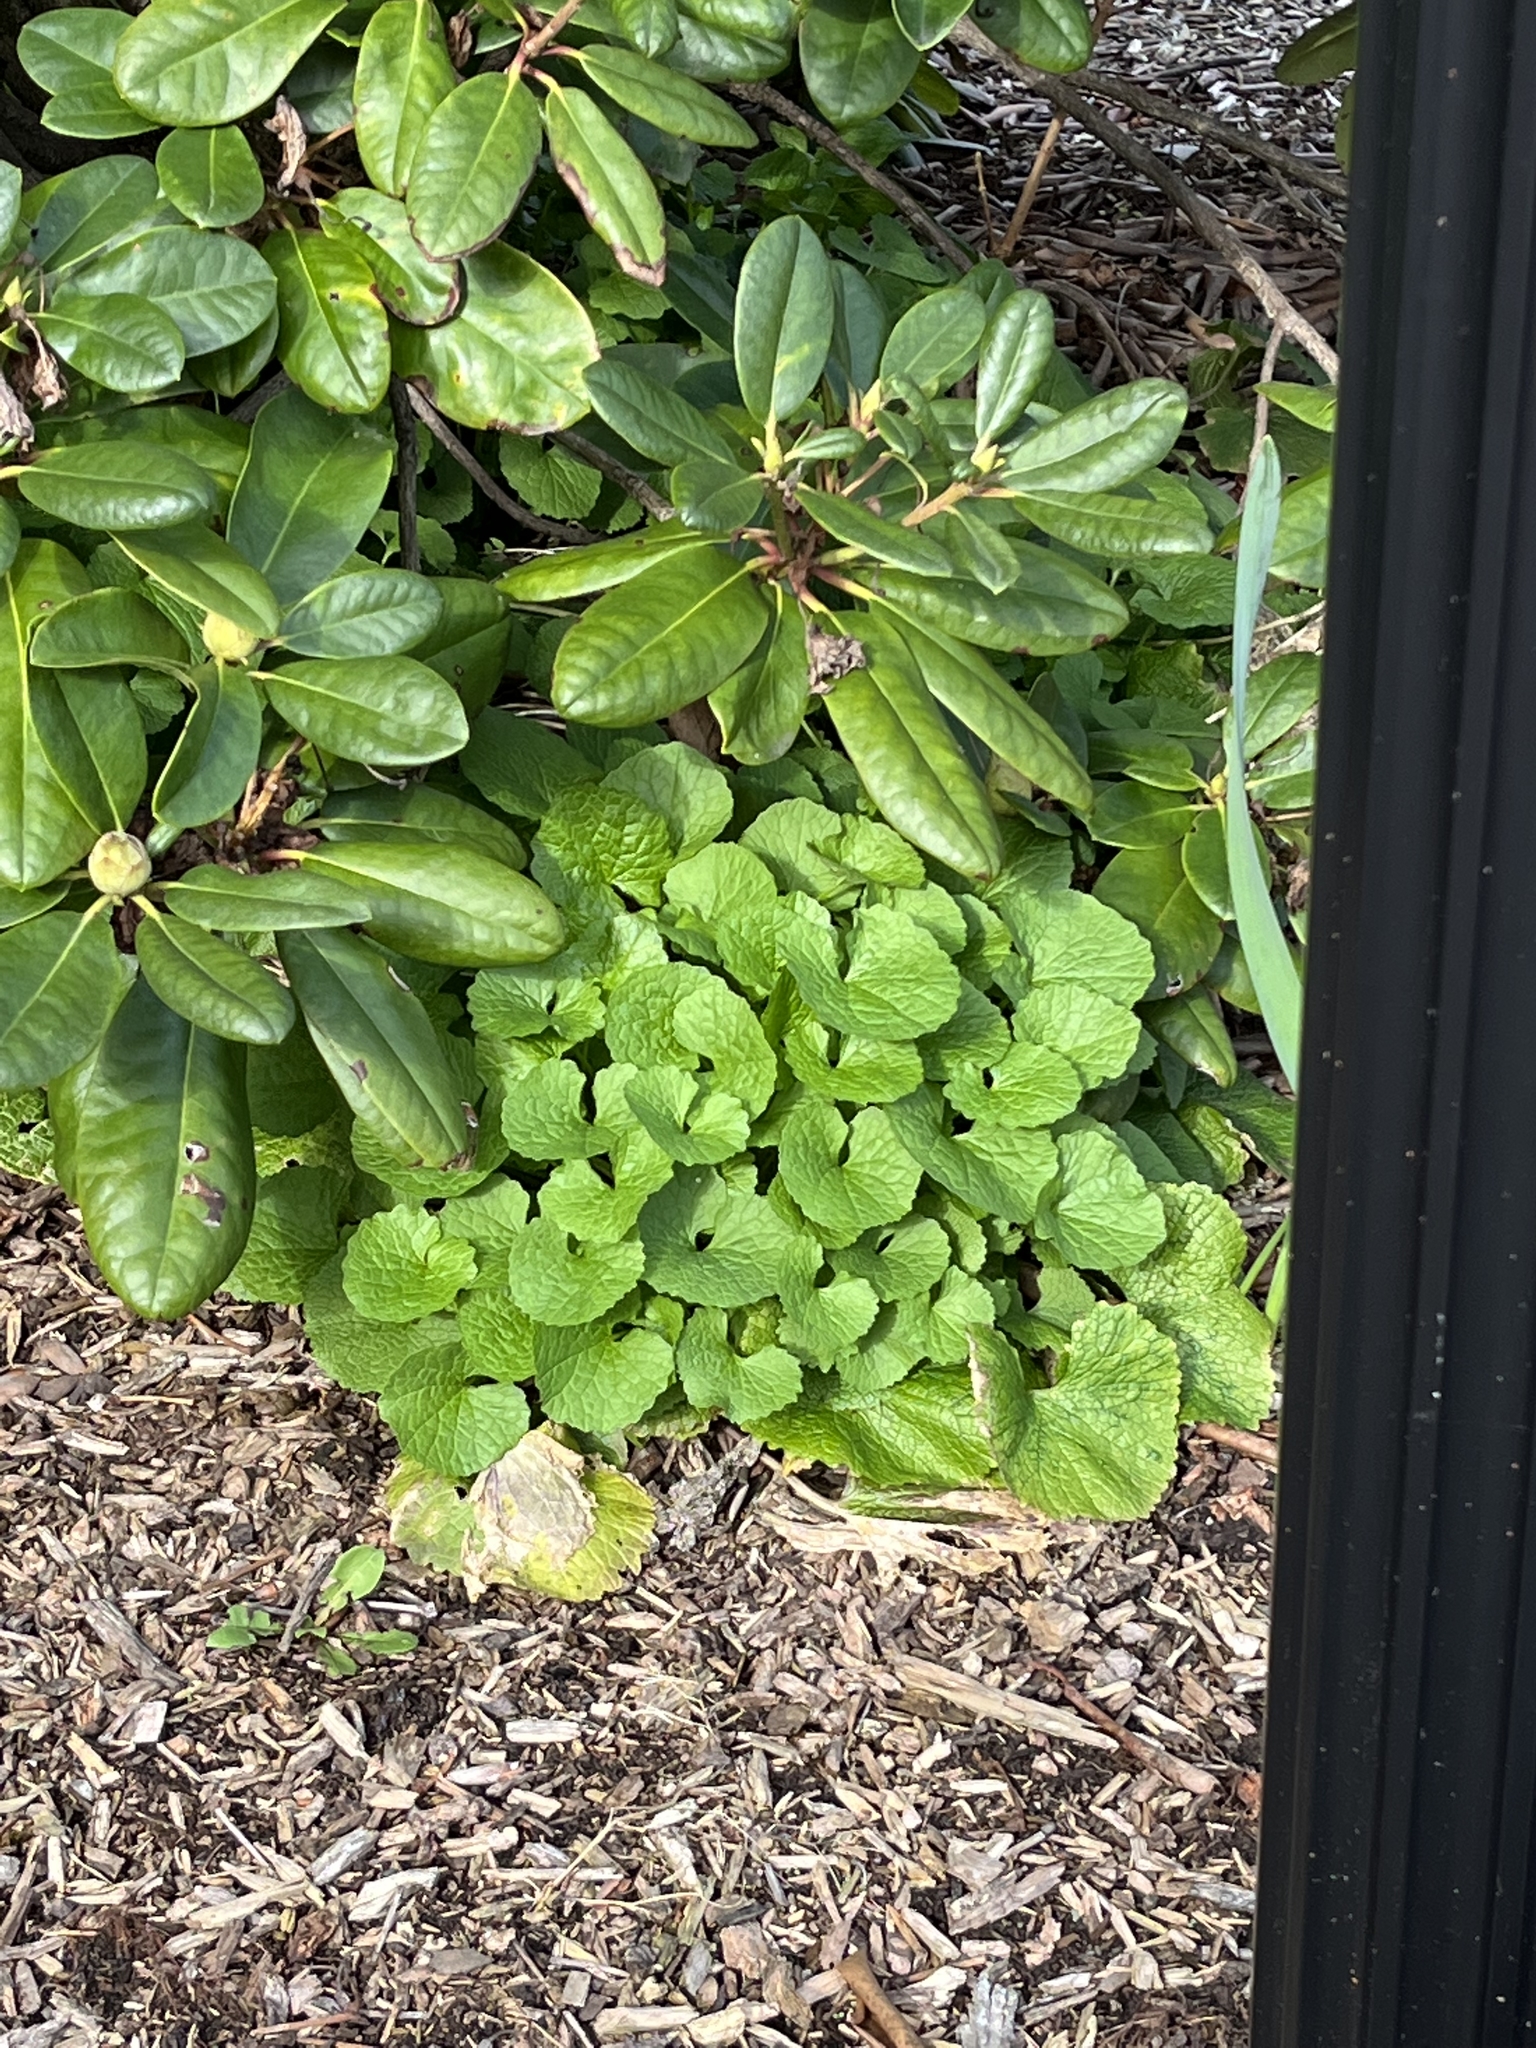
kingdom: Plantae
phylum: Tracheophyta
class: Magnoliopsida
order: Brassicales
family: Brassicaceae
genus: Alliaria
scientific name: Alliaria petiolata
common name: Garlic mustard
